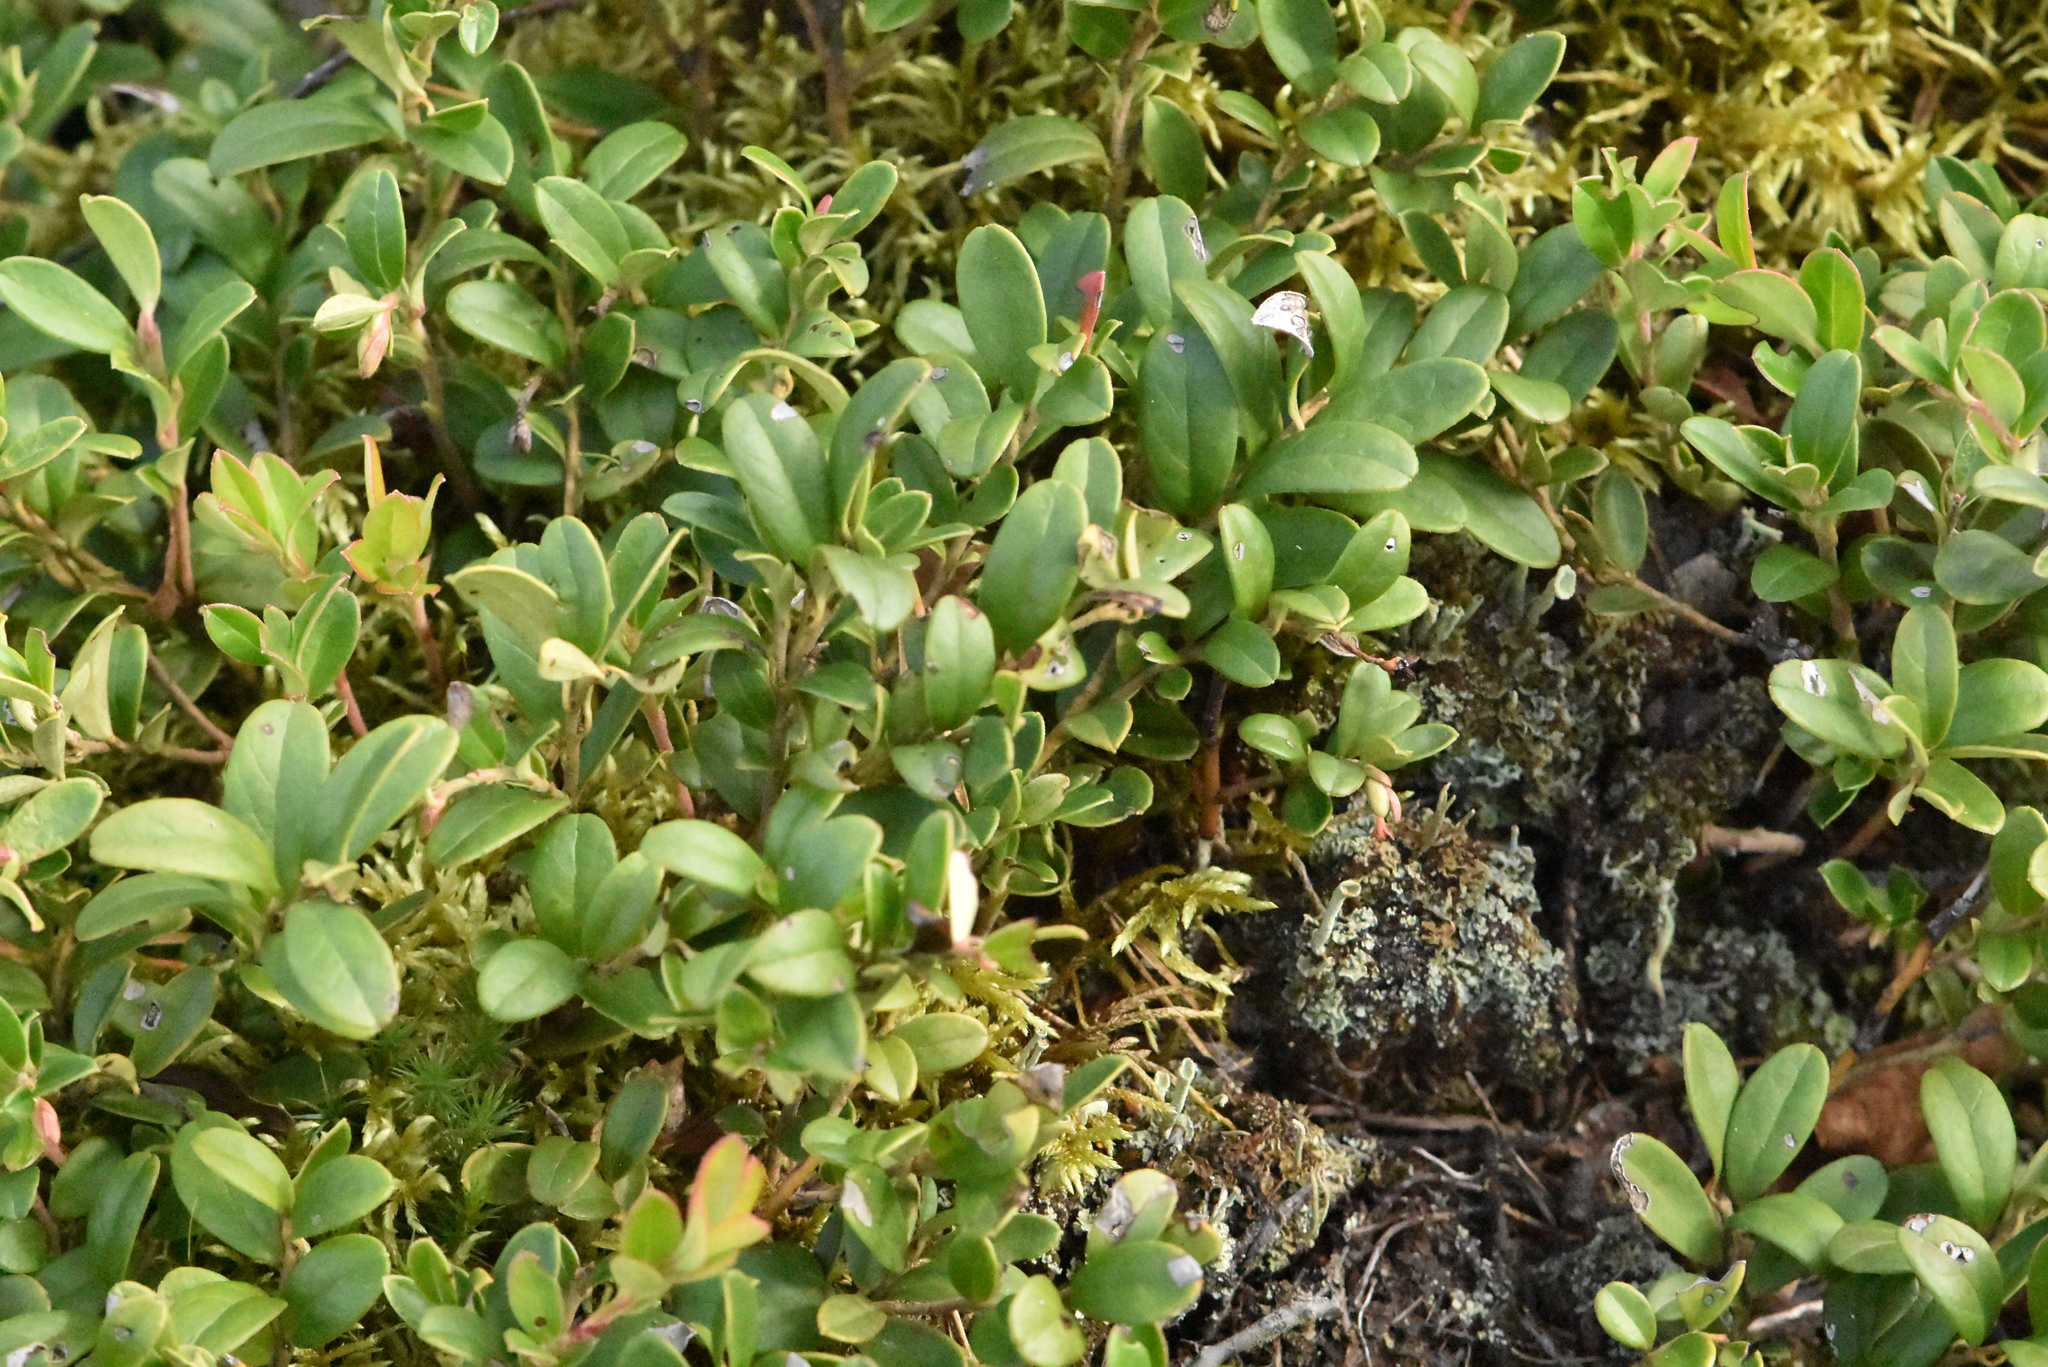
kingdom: Plantae
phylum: Tracheophyta
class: Magnoliopsida
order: Ericales
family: Ericaceae
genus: Vaccinium
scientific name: Vaccinium vitis-idaea
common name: Cowberry
